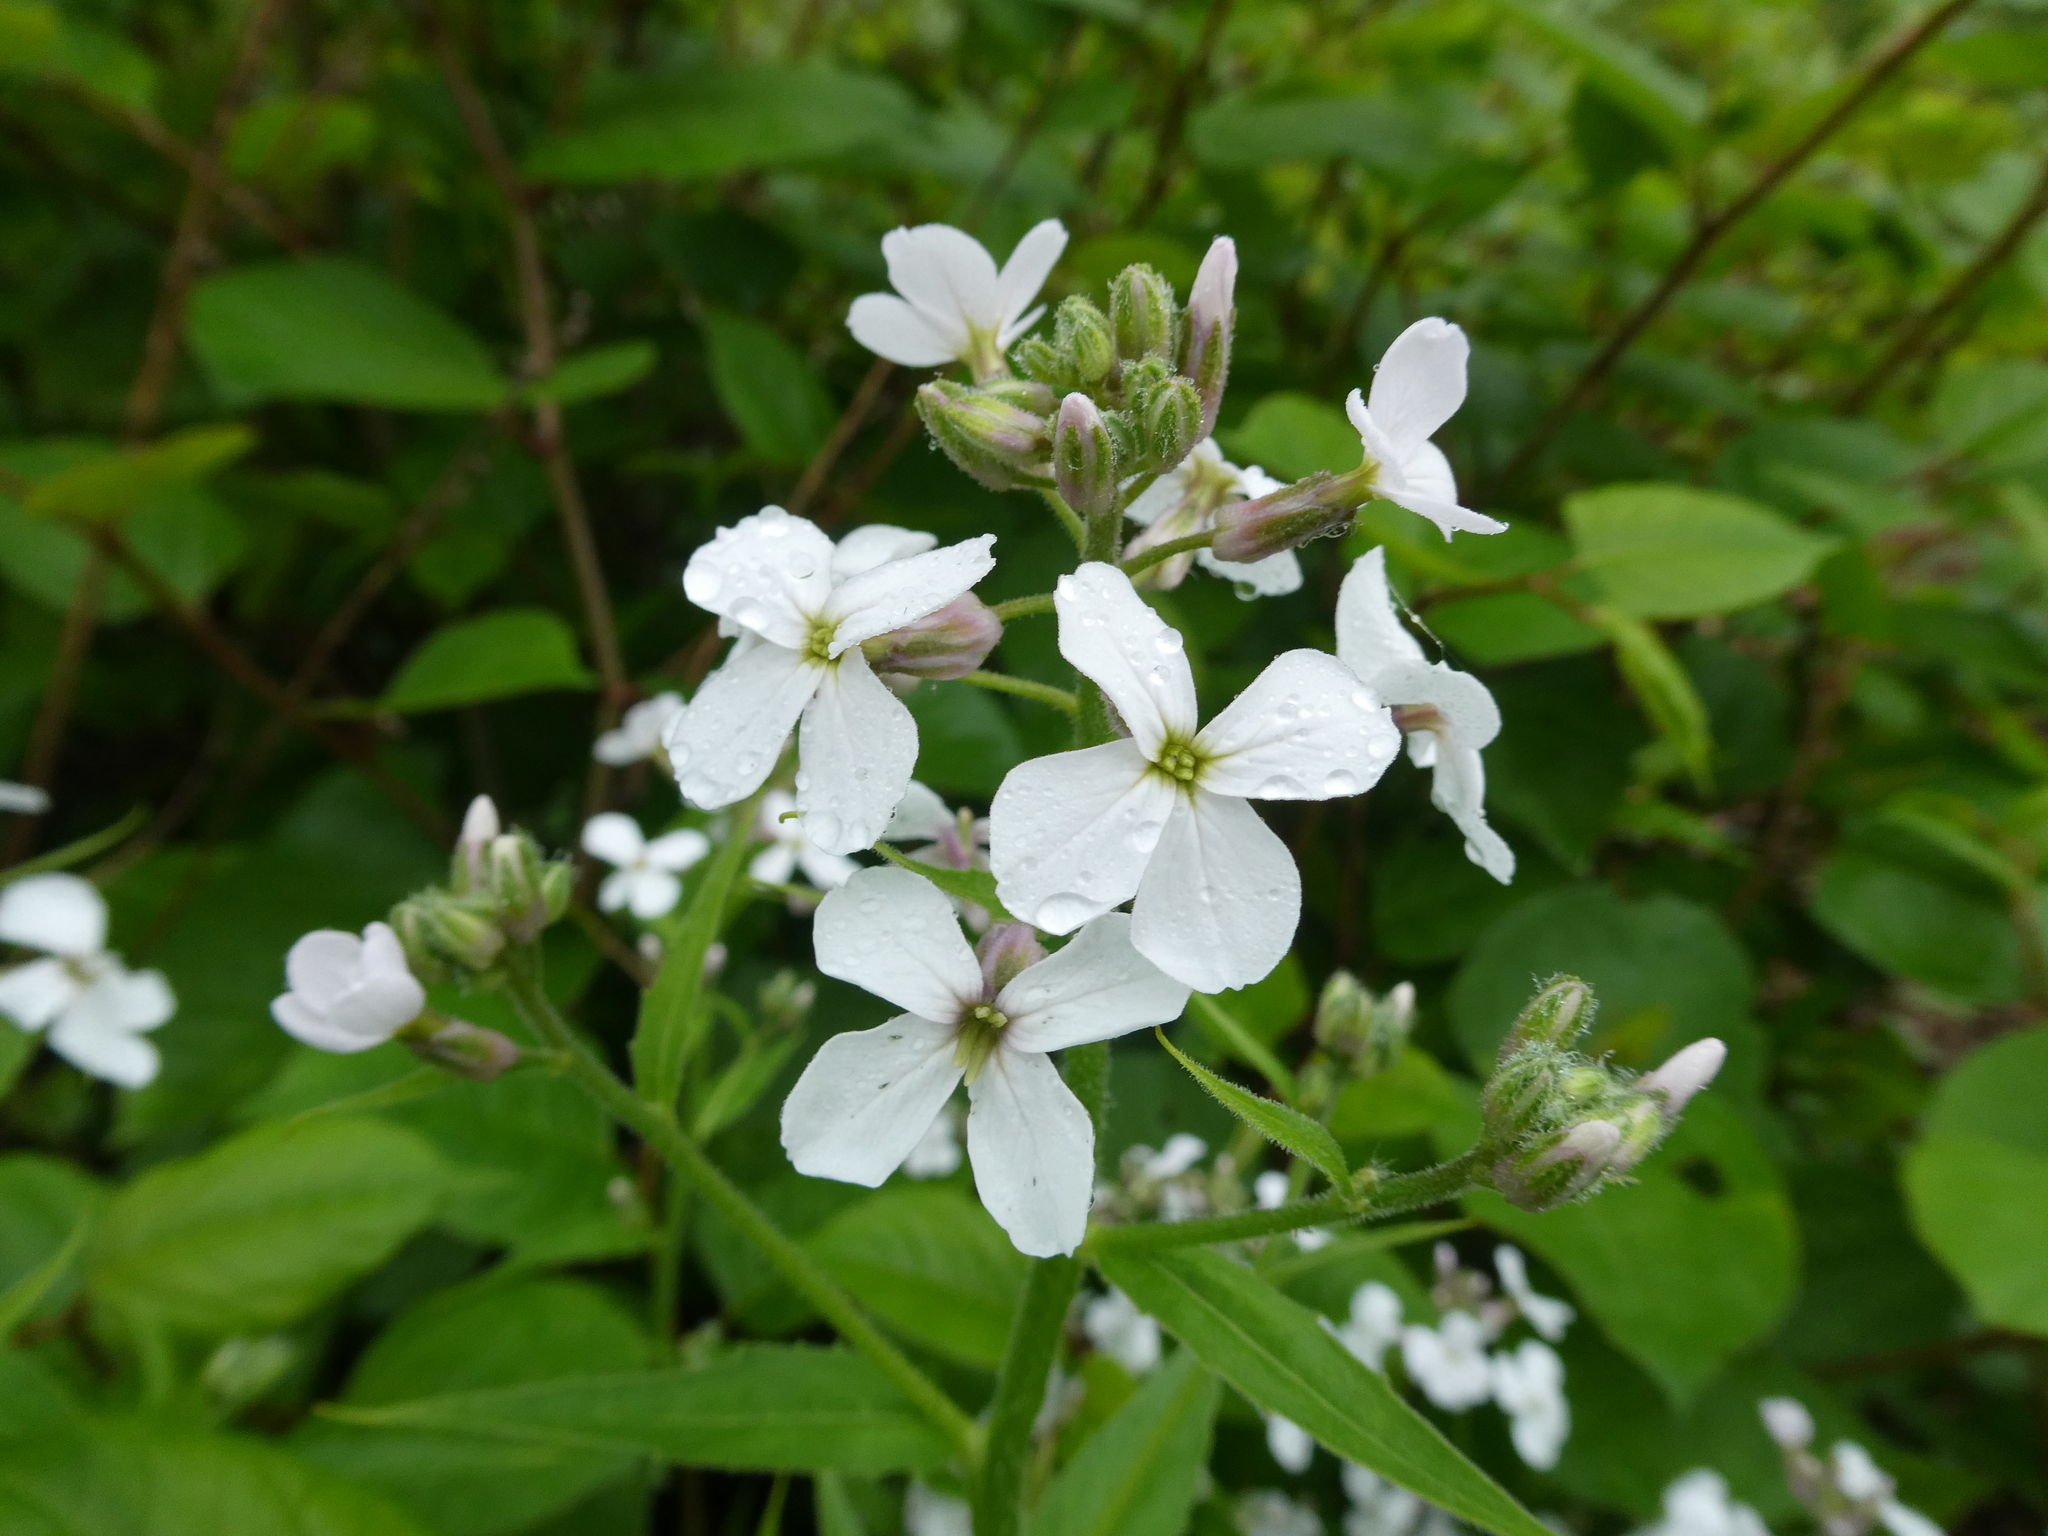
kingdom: Plantae
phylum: Tracheophyta
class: Magnoliopsida
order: Brassicales
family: Brassicaceae
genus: Hesperis
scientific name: Hesperis matronalis
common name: Dame's-violet
